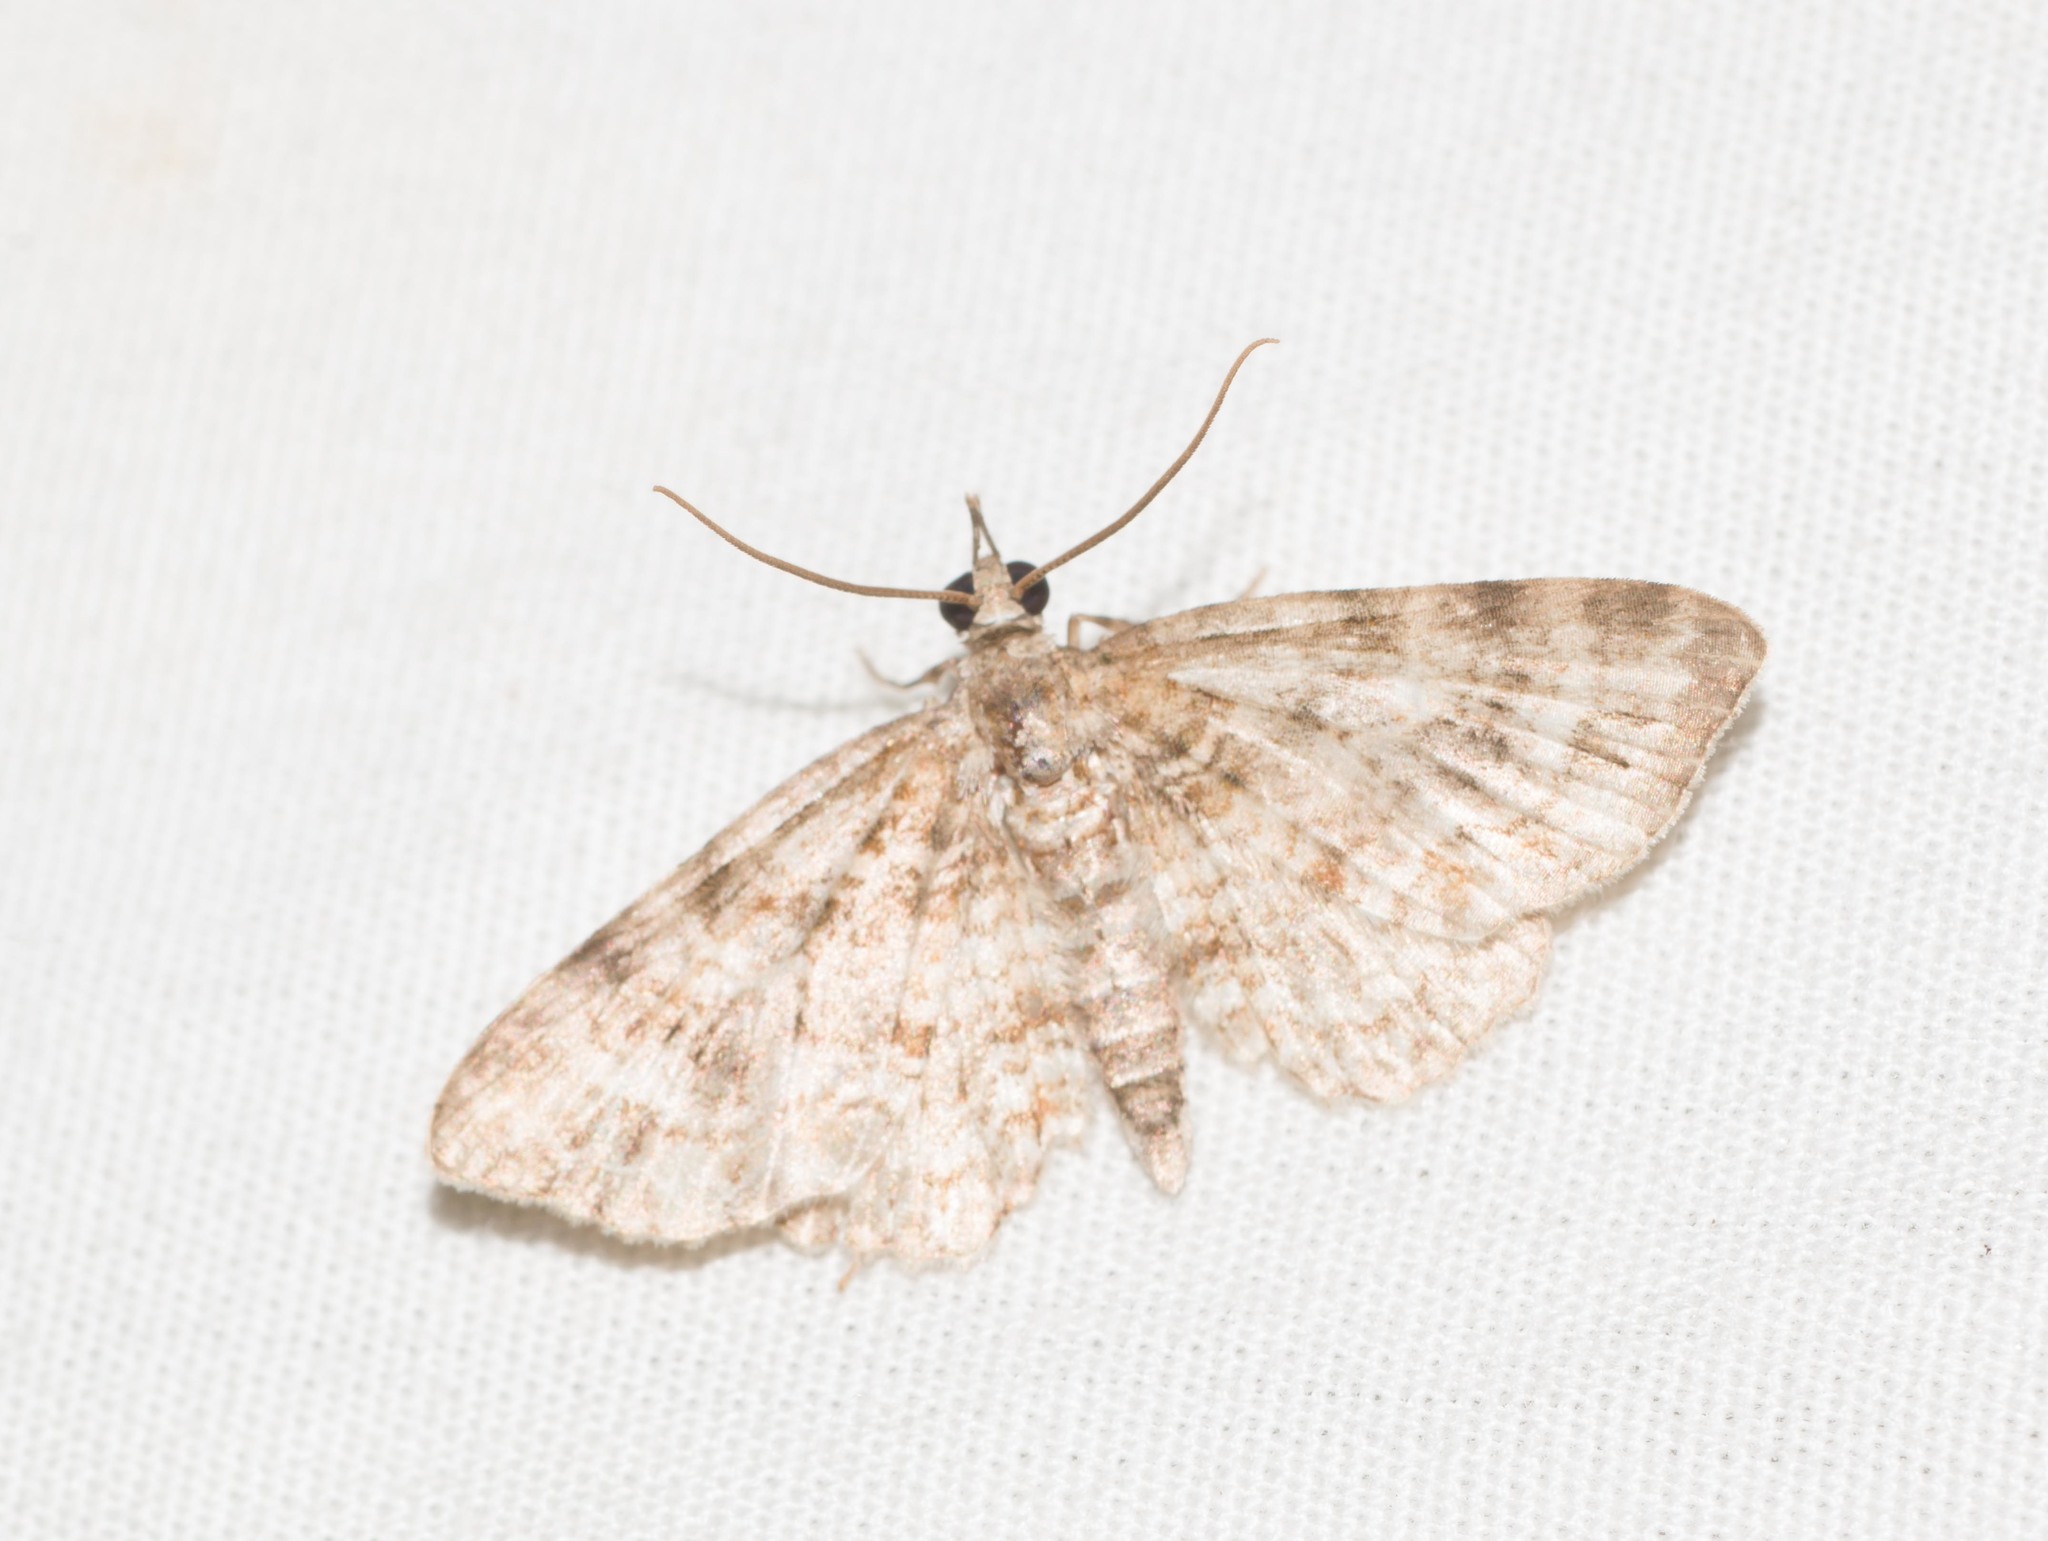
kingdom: Animalia
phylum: Arthropoda
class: Insecta
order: Lepidoptera
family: Geometridae
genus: Eupithecia
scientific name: Eupithecia monticolens
